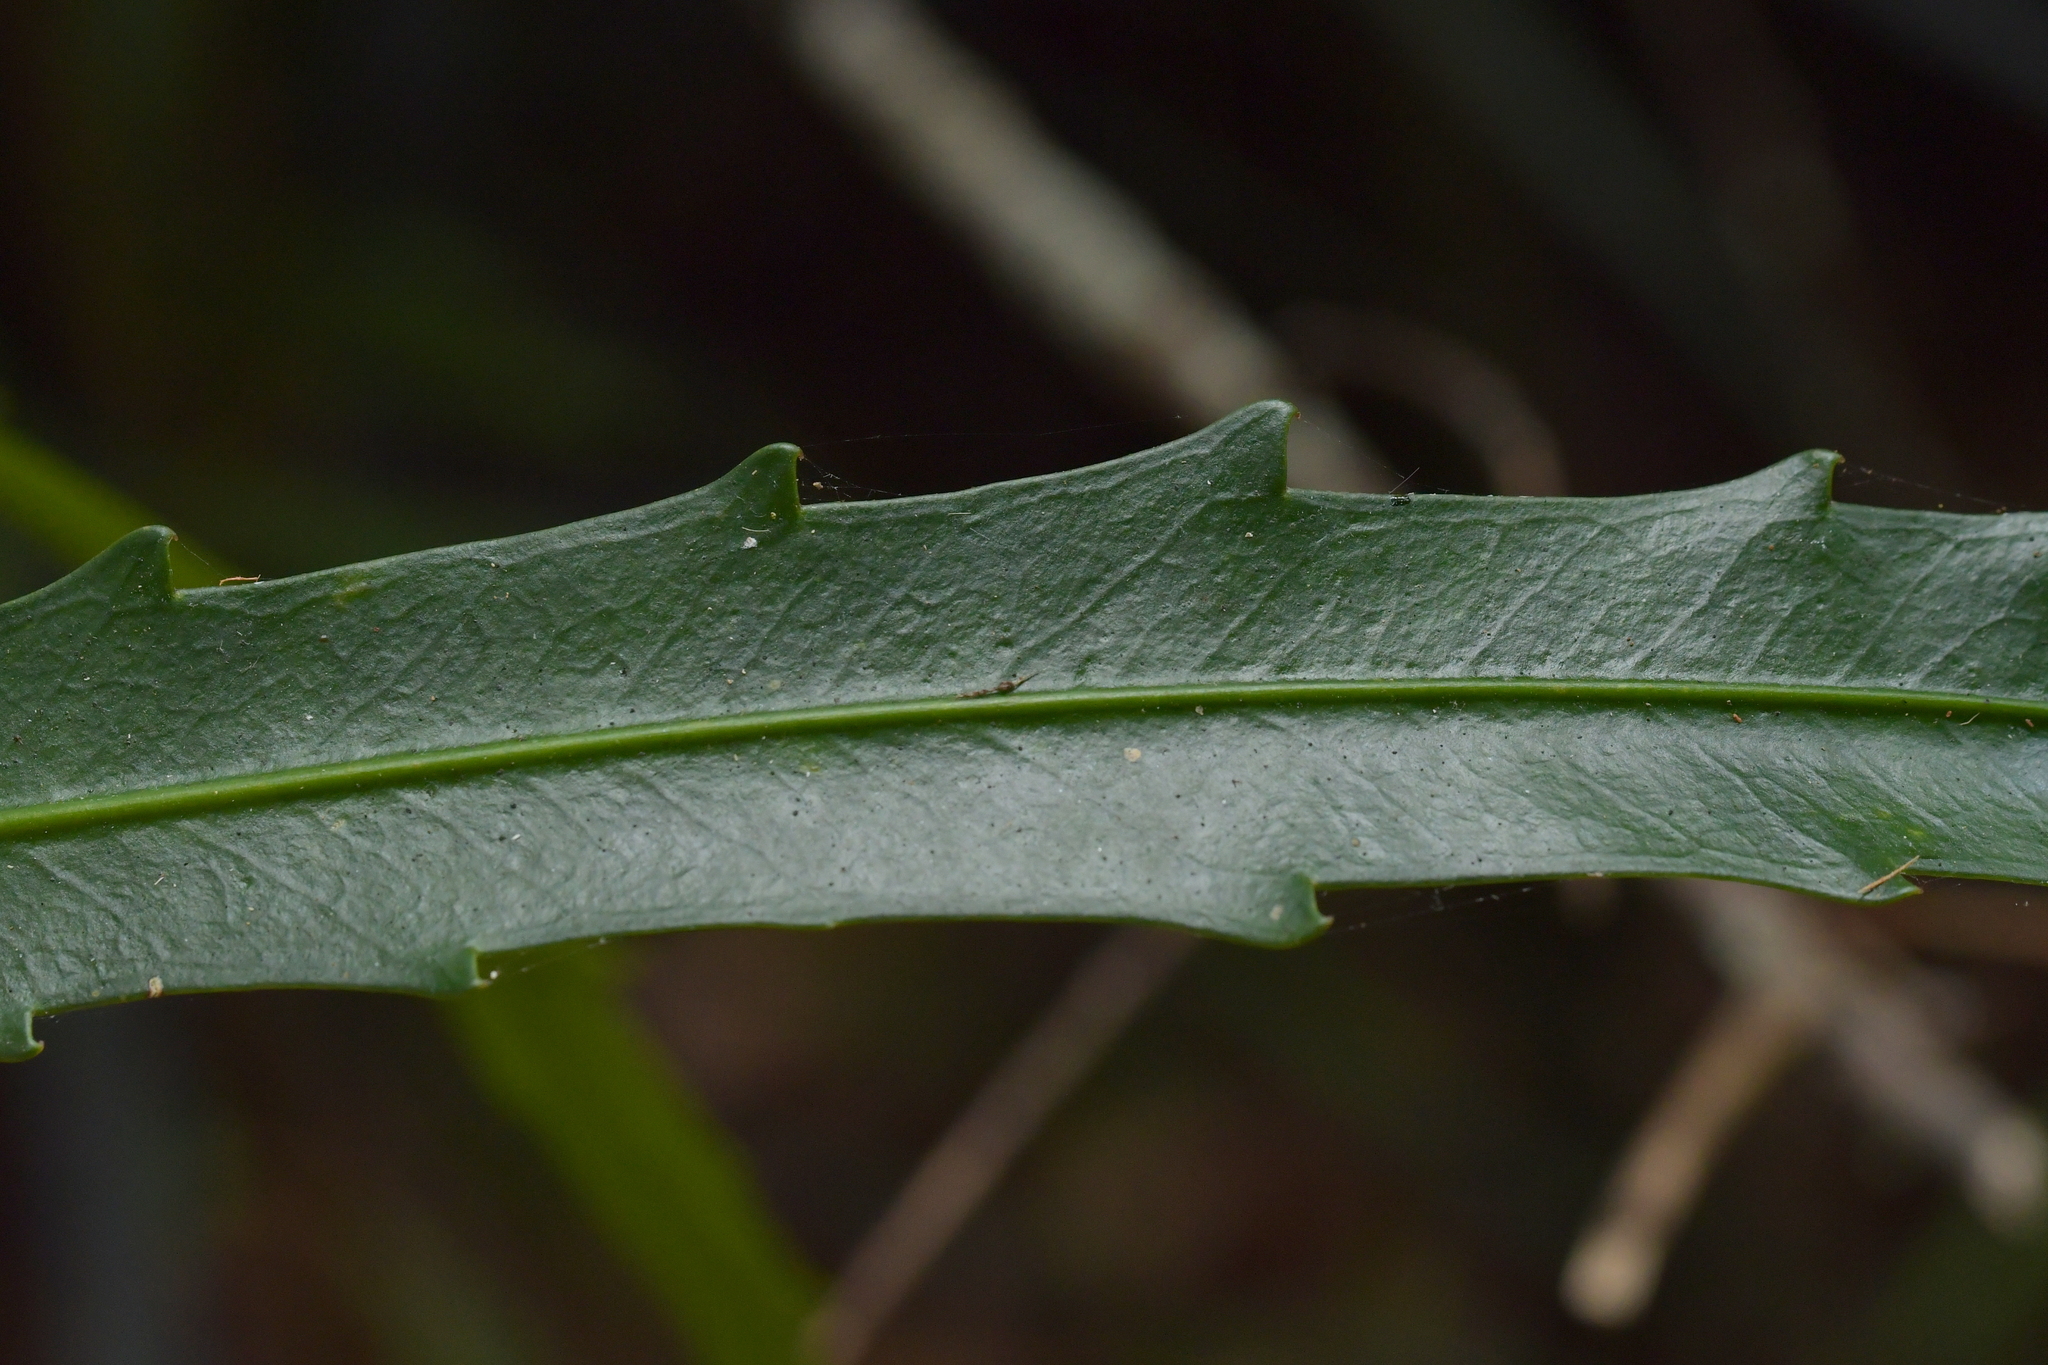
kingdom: Plantae
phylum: Tracheophyta
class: Magnoliopsida
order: Apiales
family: Araliaceae
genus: Pseudopanax
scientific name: Pseudopanax
